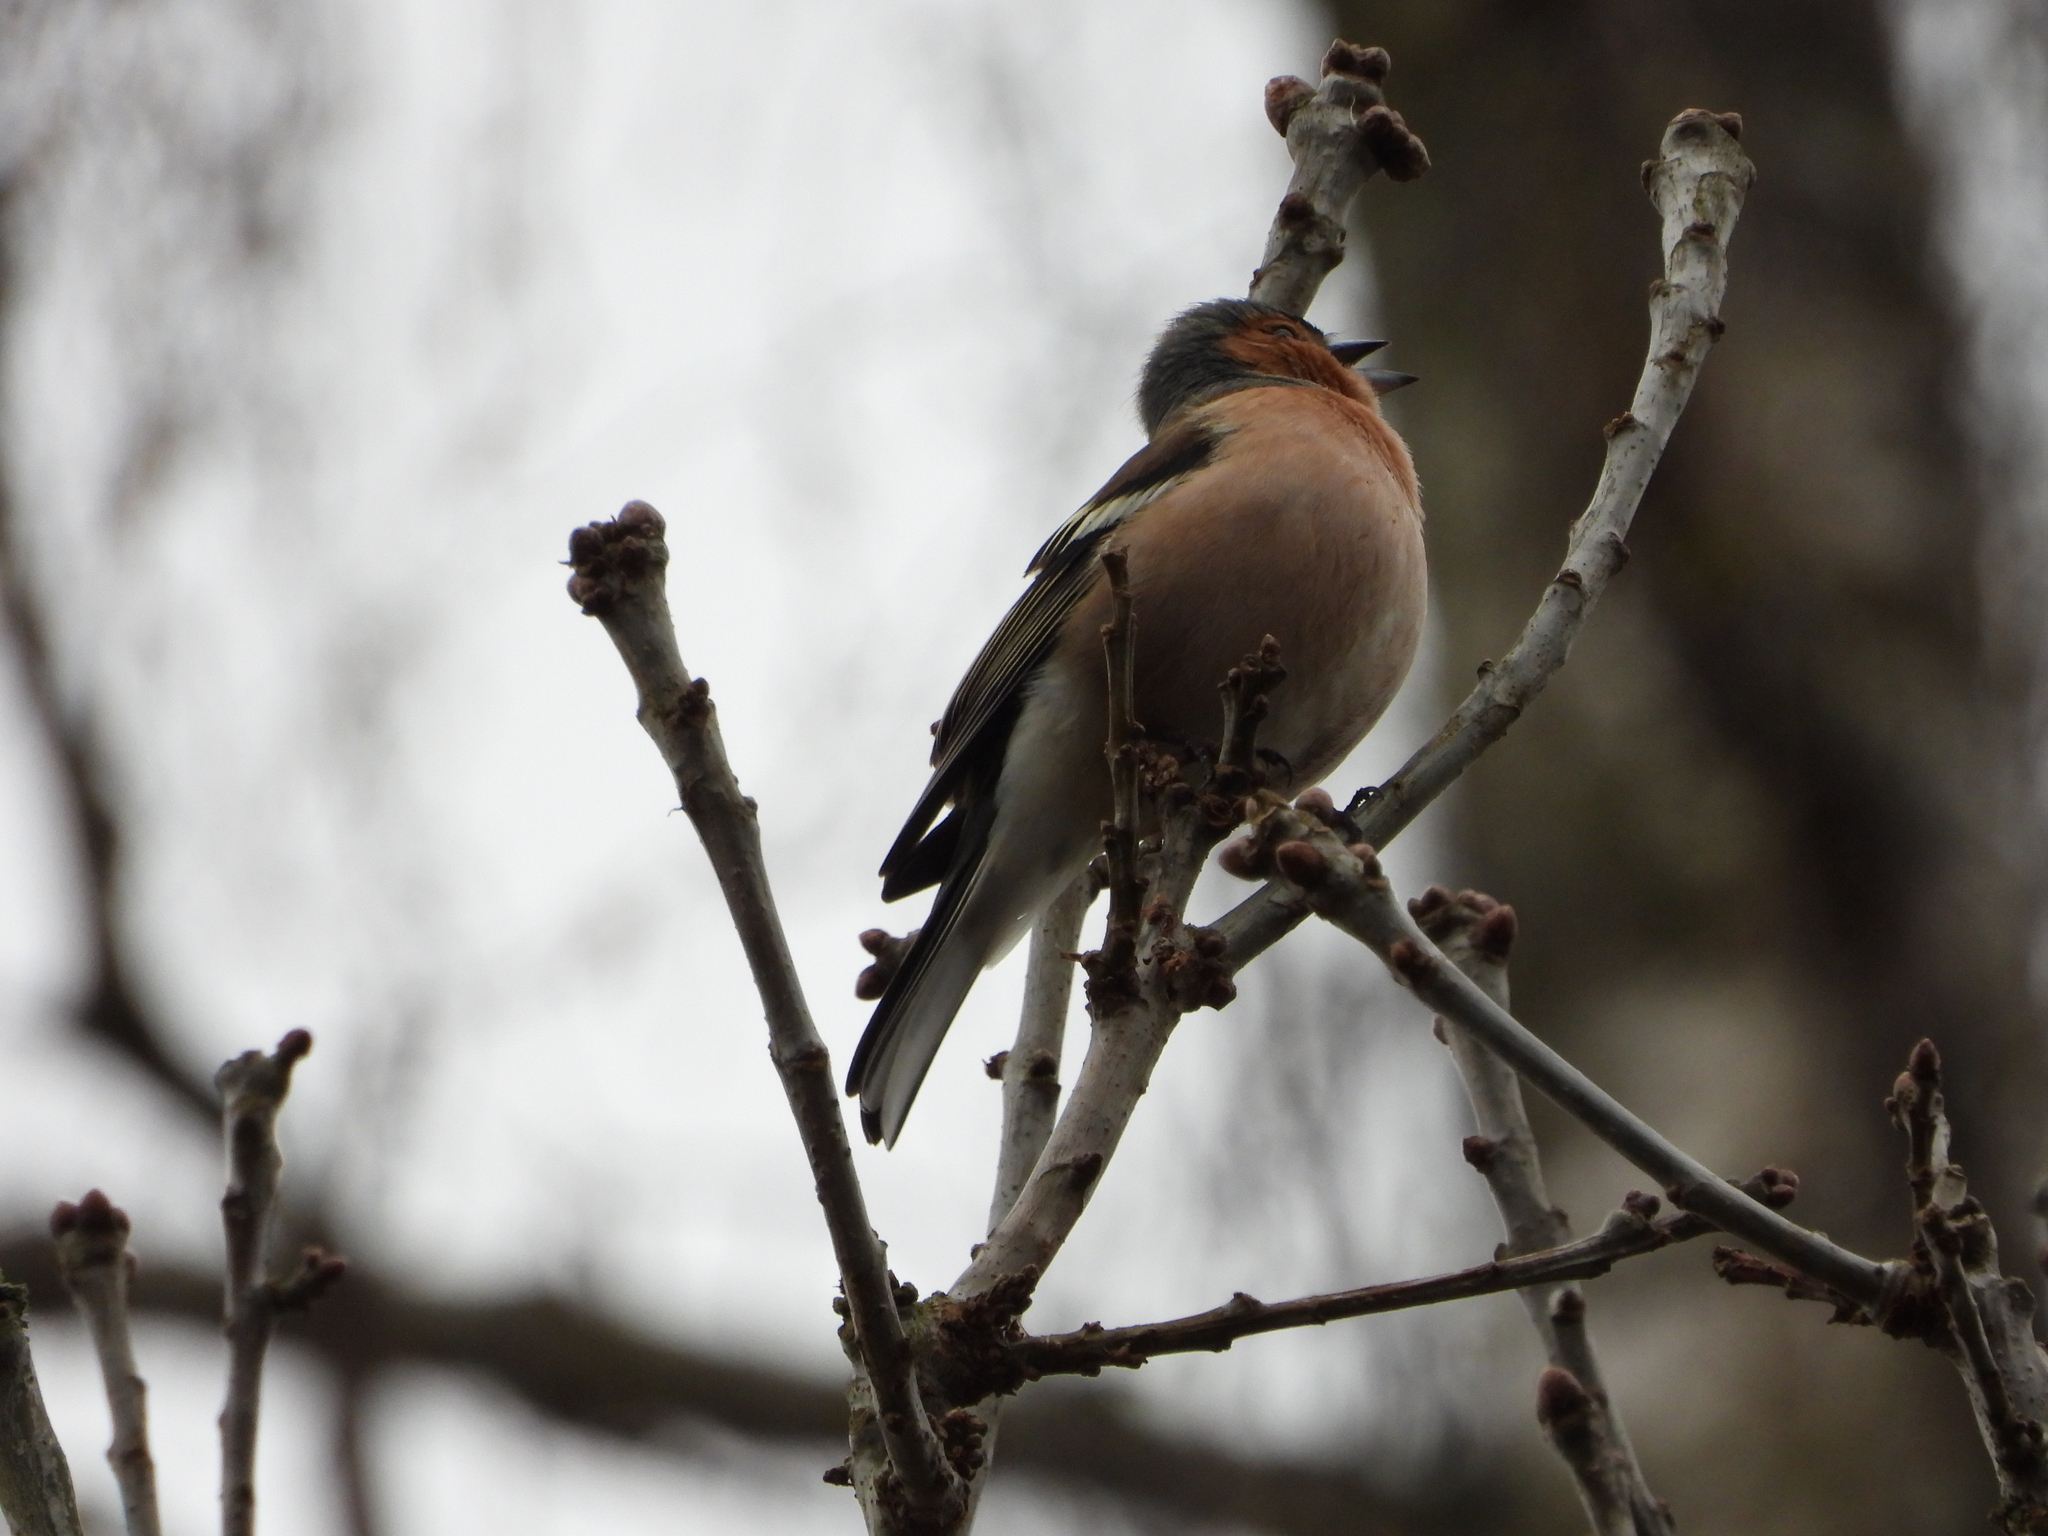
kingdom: Animalia
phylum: Chordata
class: Aves
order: Passeriformes
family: Fringillidae
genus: Fringilla
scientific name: Fringilla coelebs
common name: Common chaffinch
